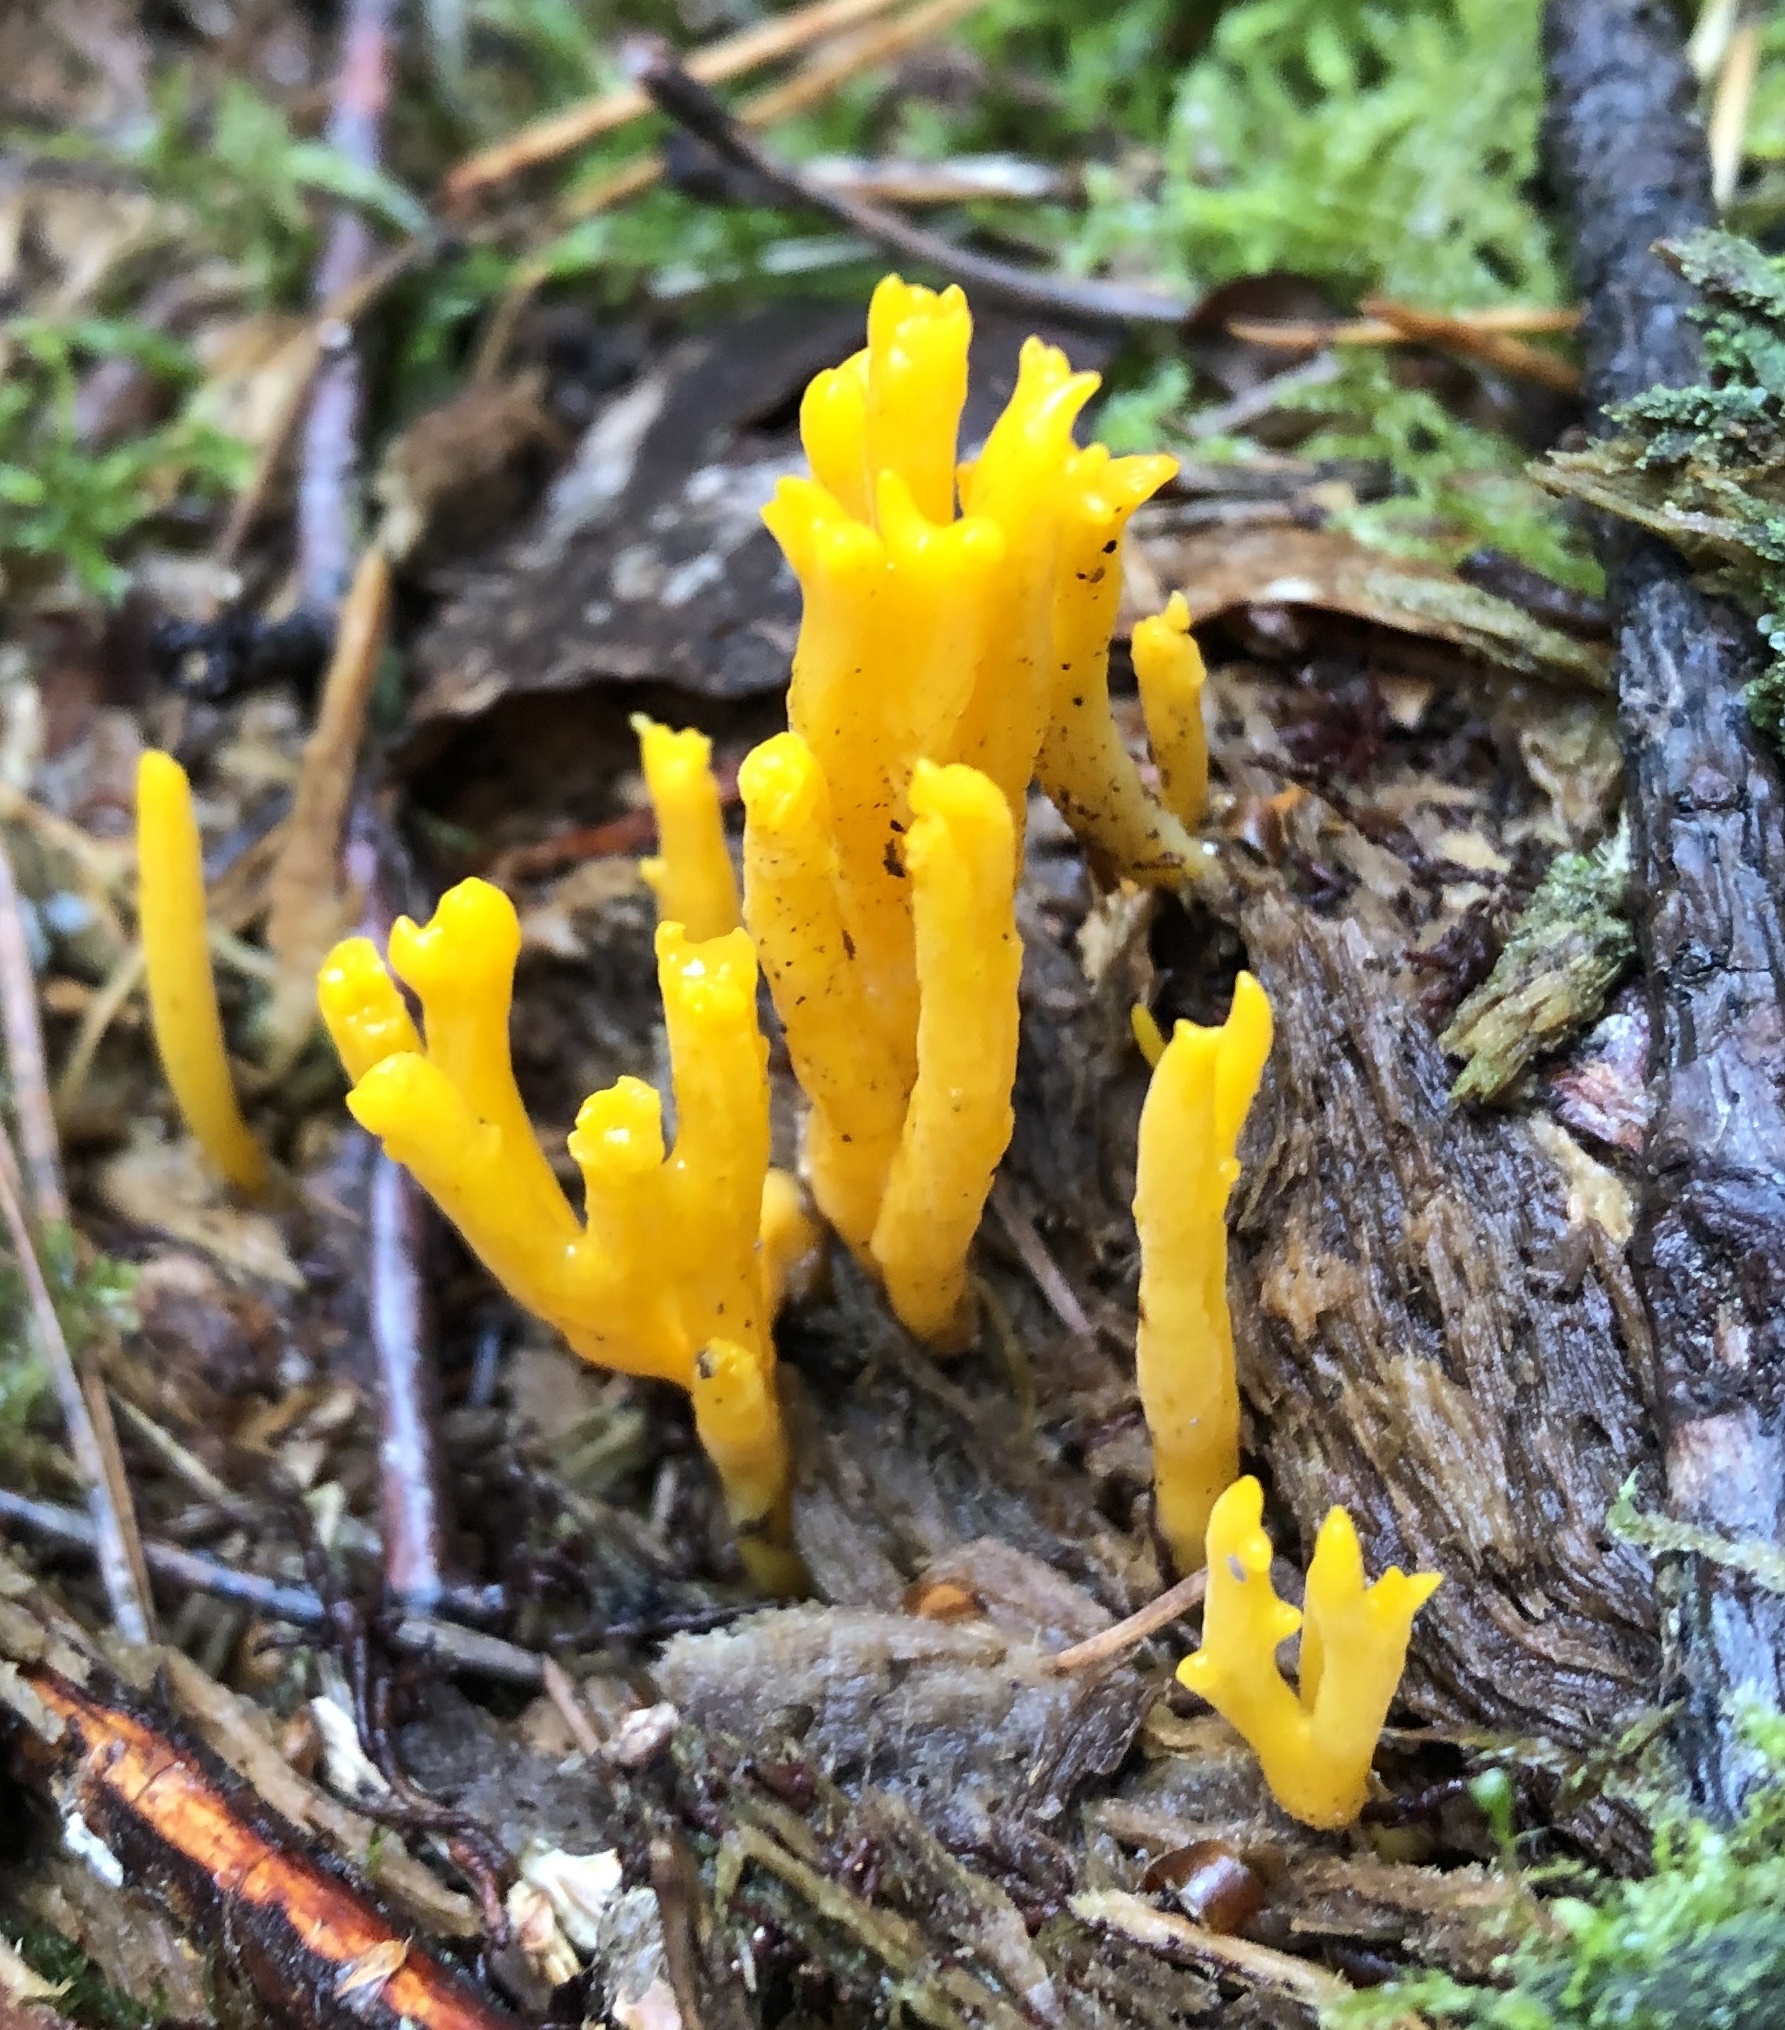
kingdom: Fungi
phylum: Basidiomycota
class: Dacrymycetes
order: Dacrymycetales
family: Dacrymycetaceae
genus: Calocera
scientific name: Calocera viscosa
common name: Yellow stagshorn
